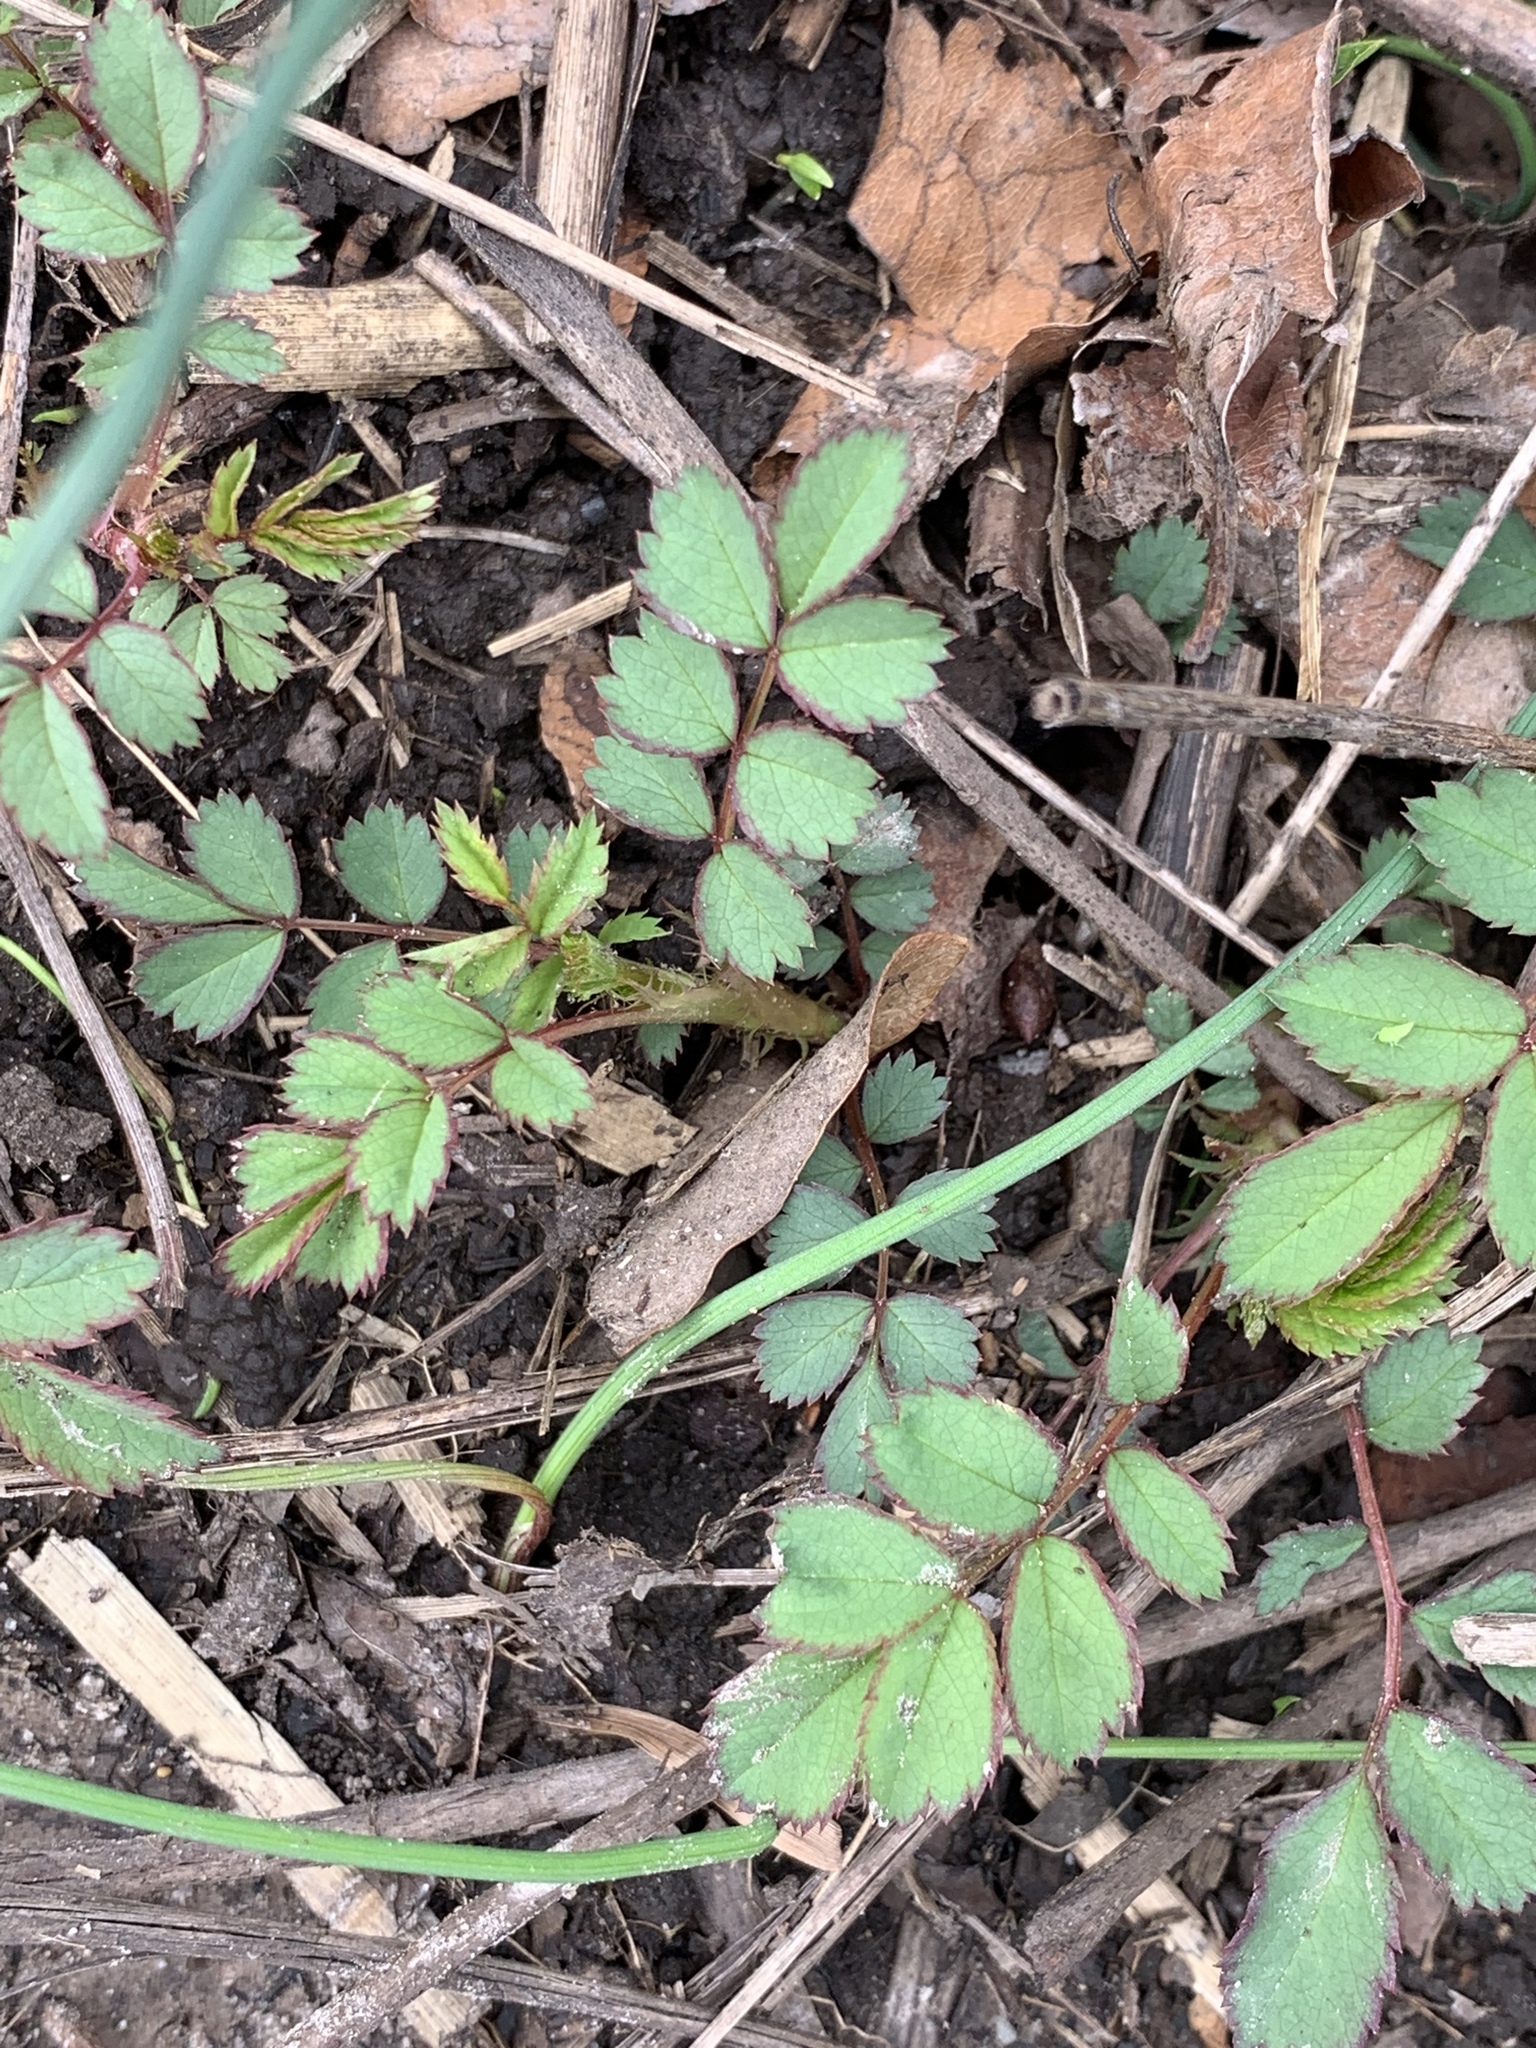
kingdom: Plantae
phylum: Tracheophyta
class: Magnoliopsida
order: Rosales
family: Rosaceae
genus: Rosa
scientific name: Rosa multiflora
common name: Multiflora rose
